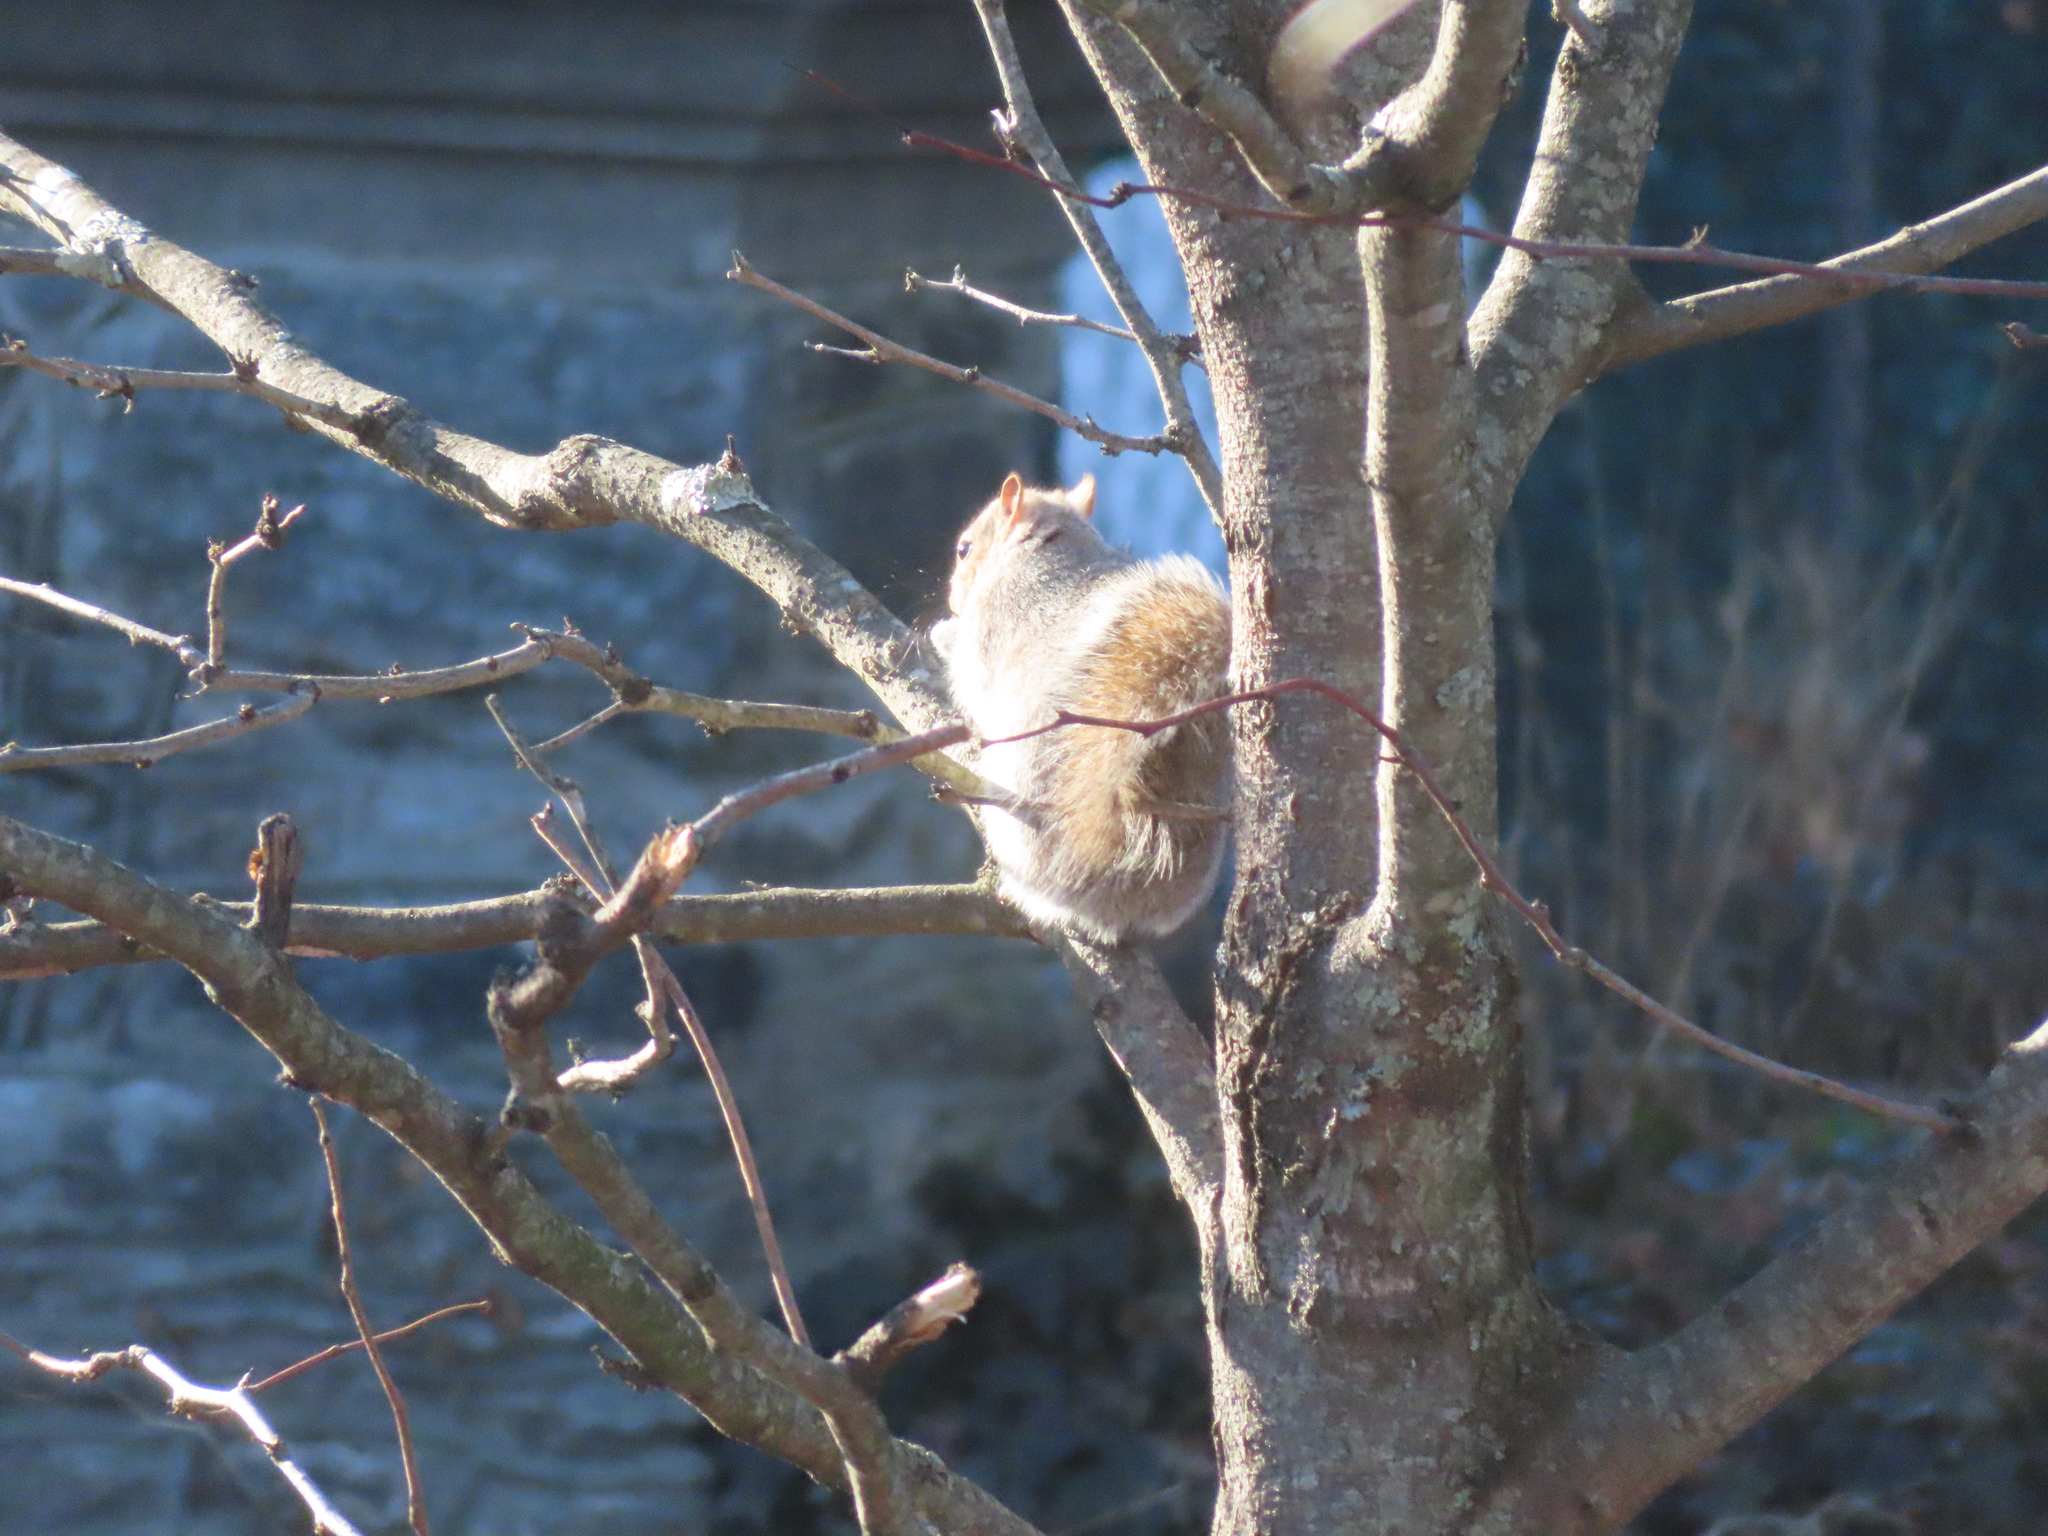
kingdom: Animalia
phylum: Chordata
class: Mammalia
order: Rodentia
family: Sciuridae
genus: Sciurus
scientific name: Sciurus carolinensis
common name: Eastern gray squirrel
